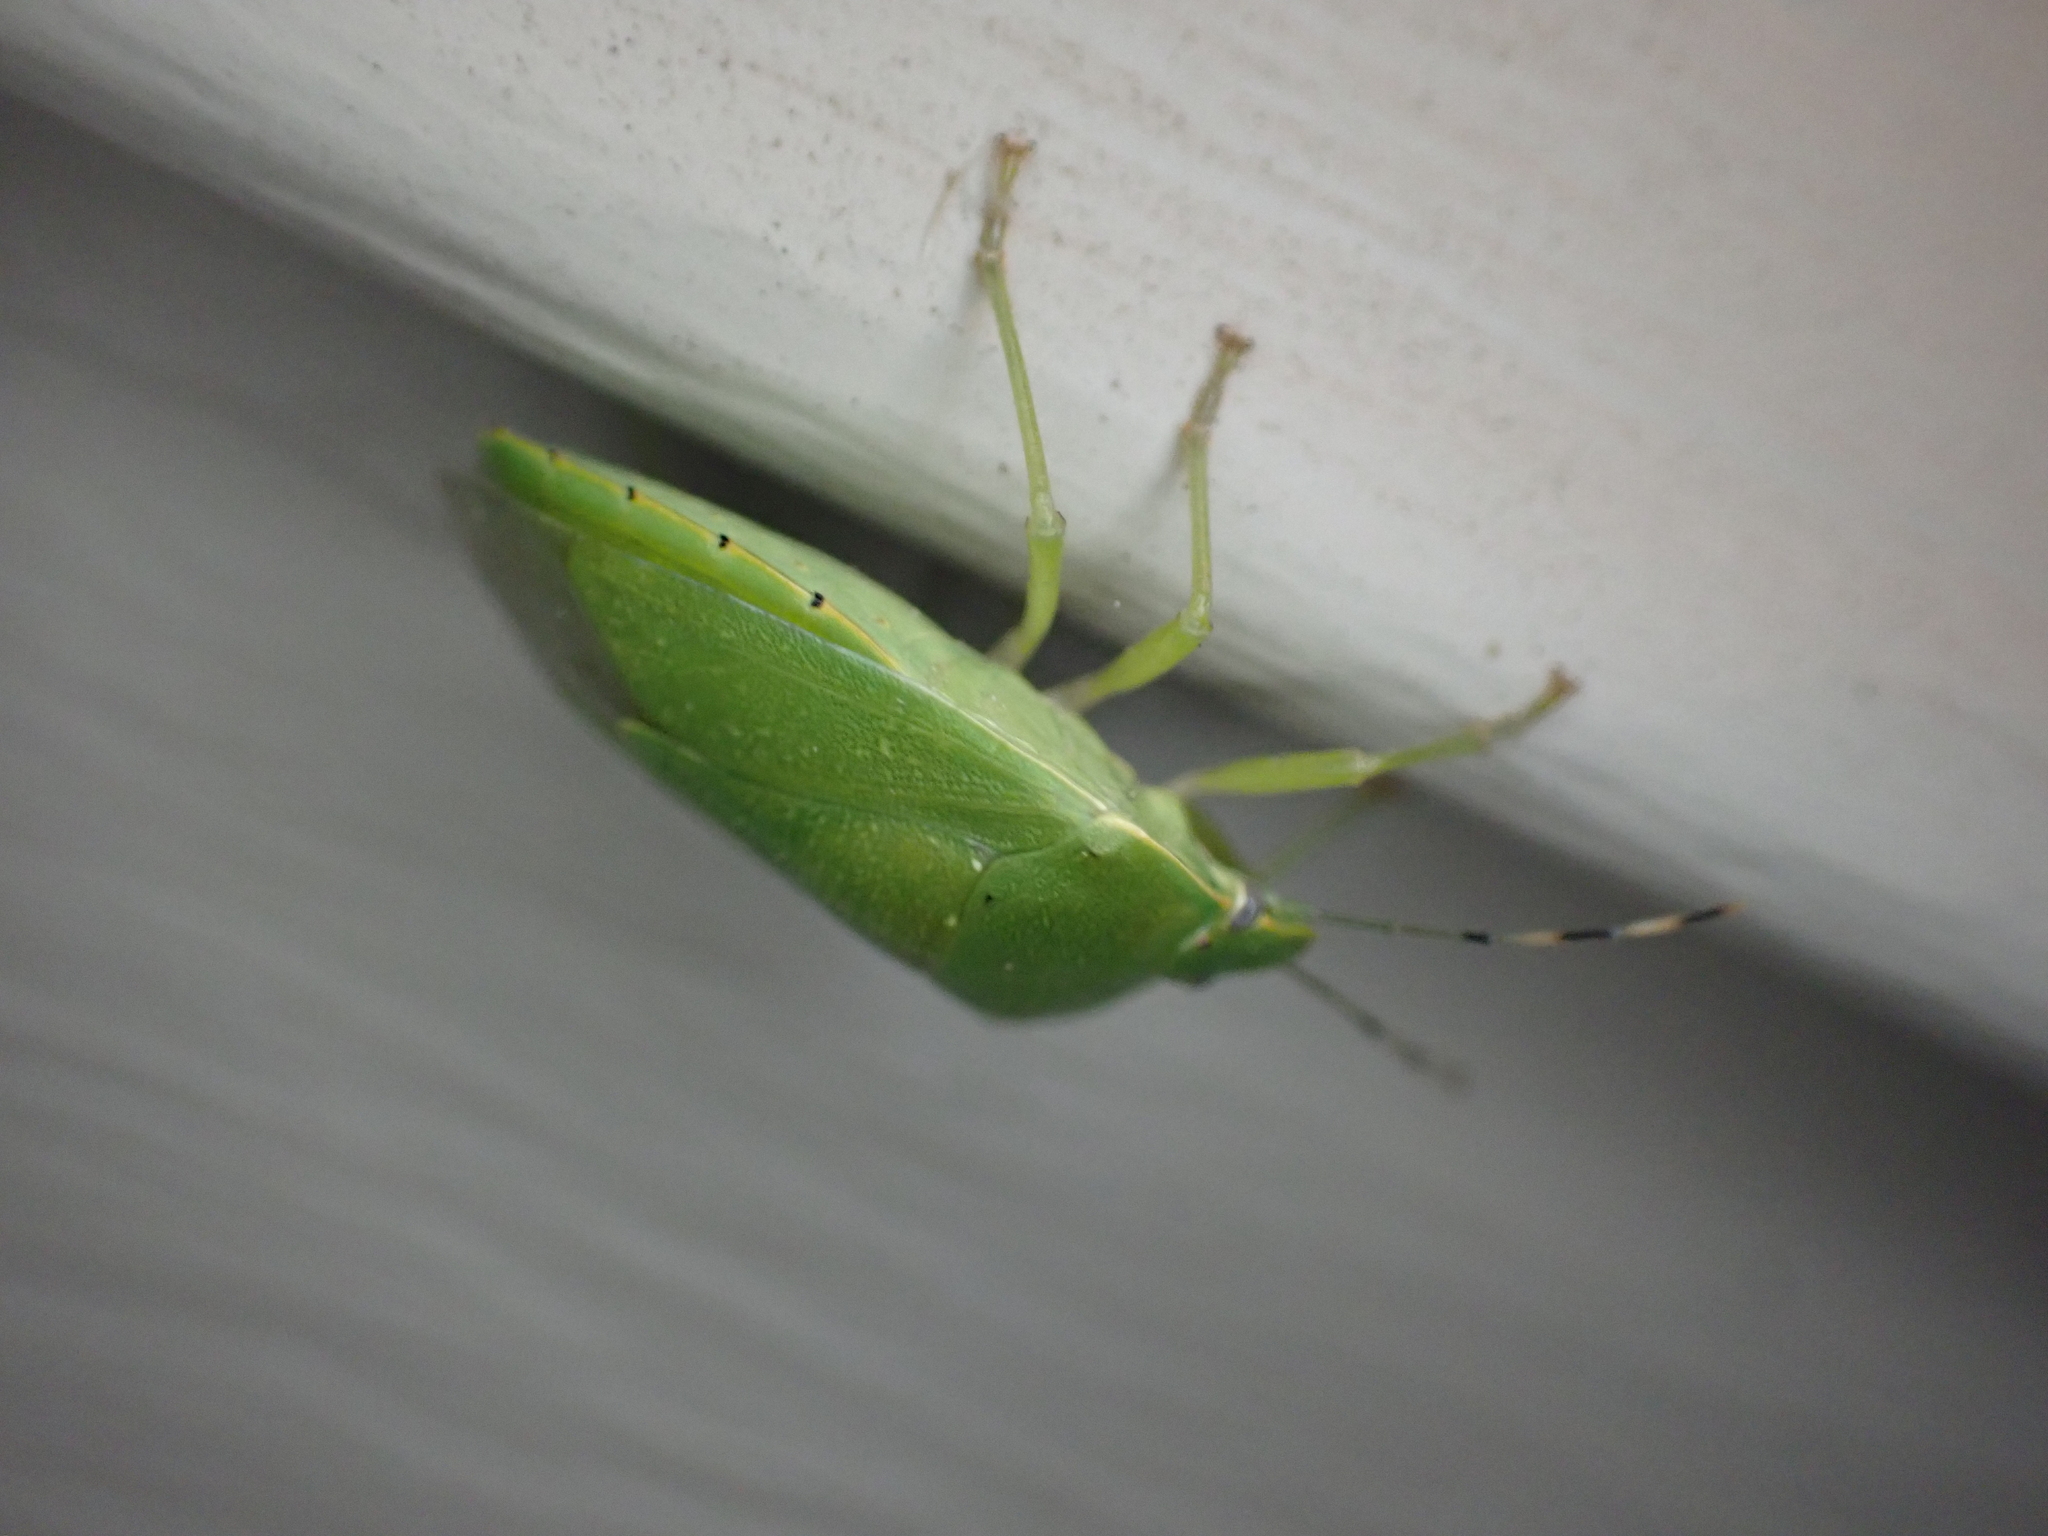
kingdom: Animalia
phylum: Arthropoda
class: Insecta
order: Hemiptera
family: Pentatomidae
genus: Chinavia
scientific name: Chinavia hilaris
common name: Green stink bug
